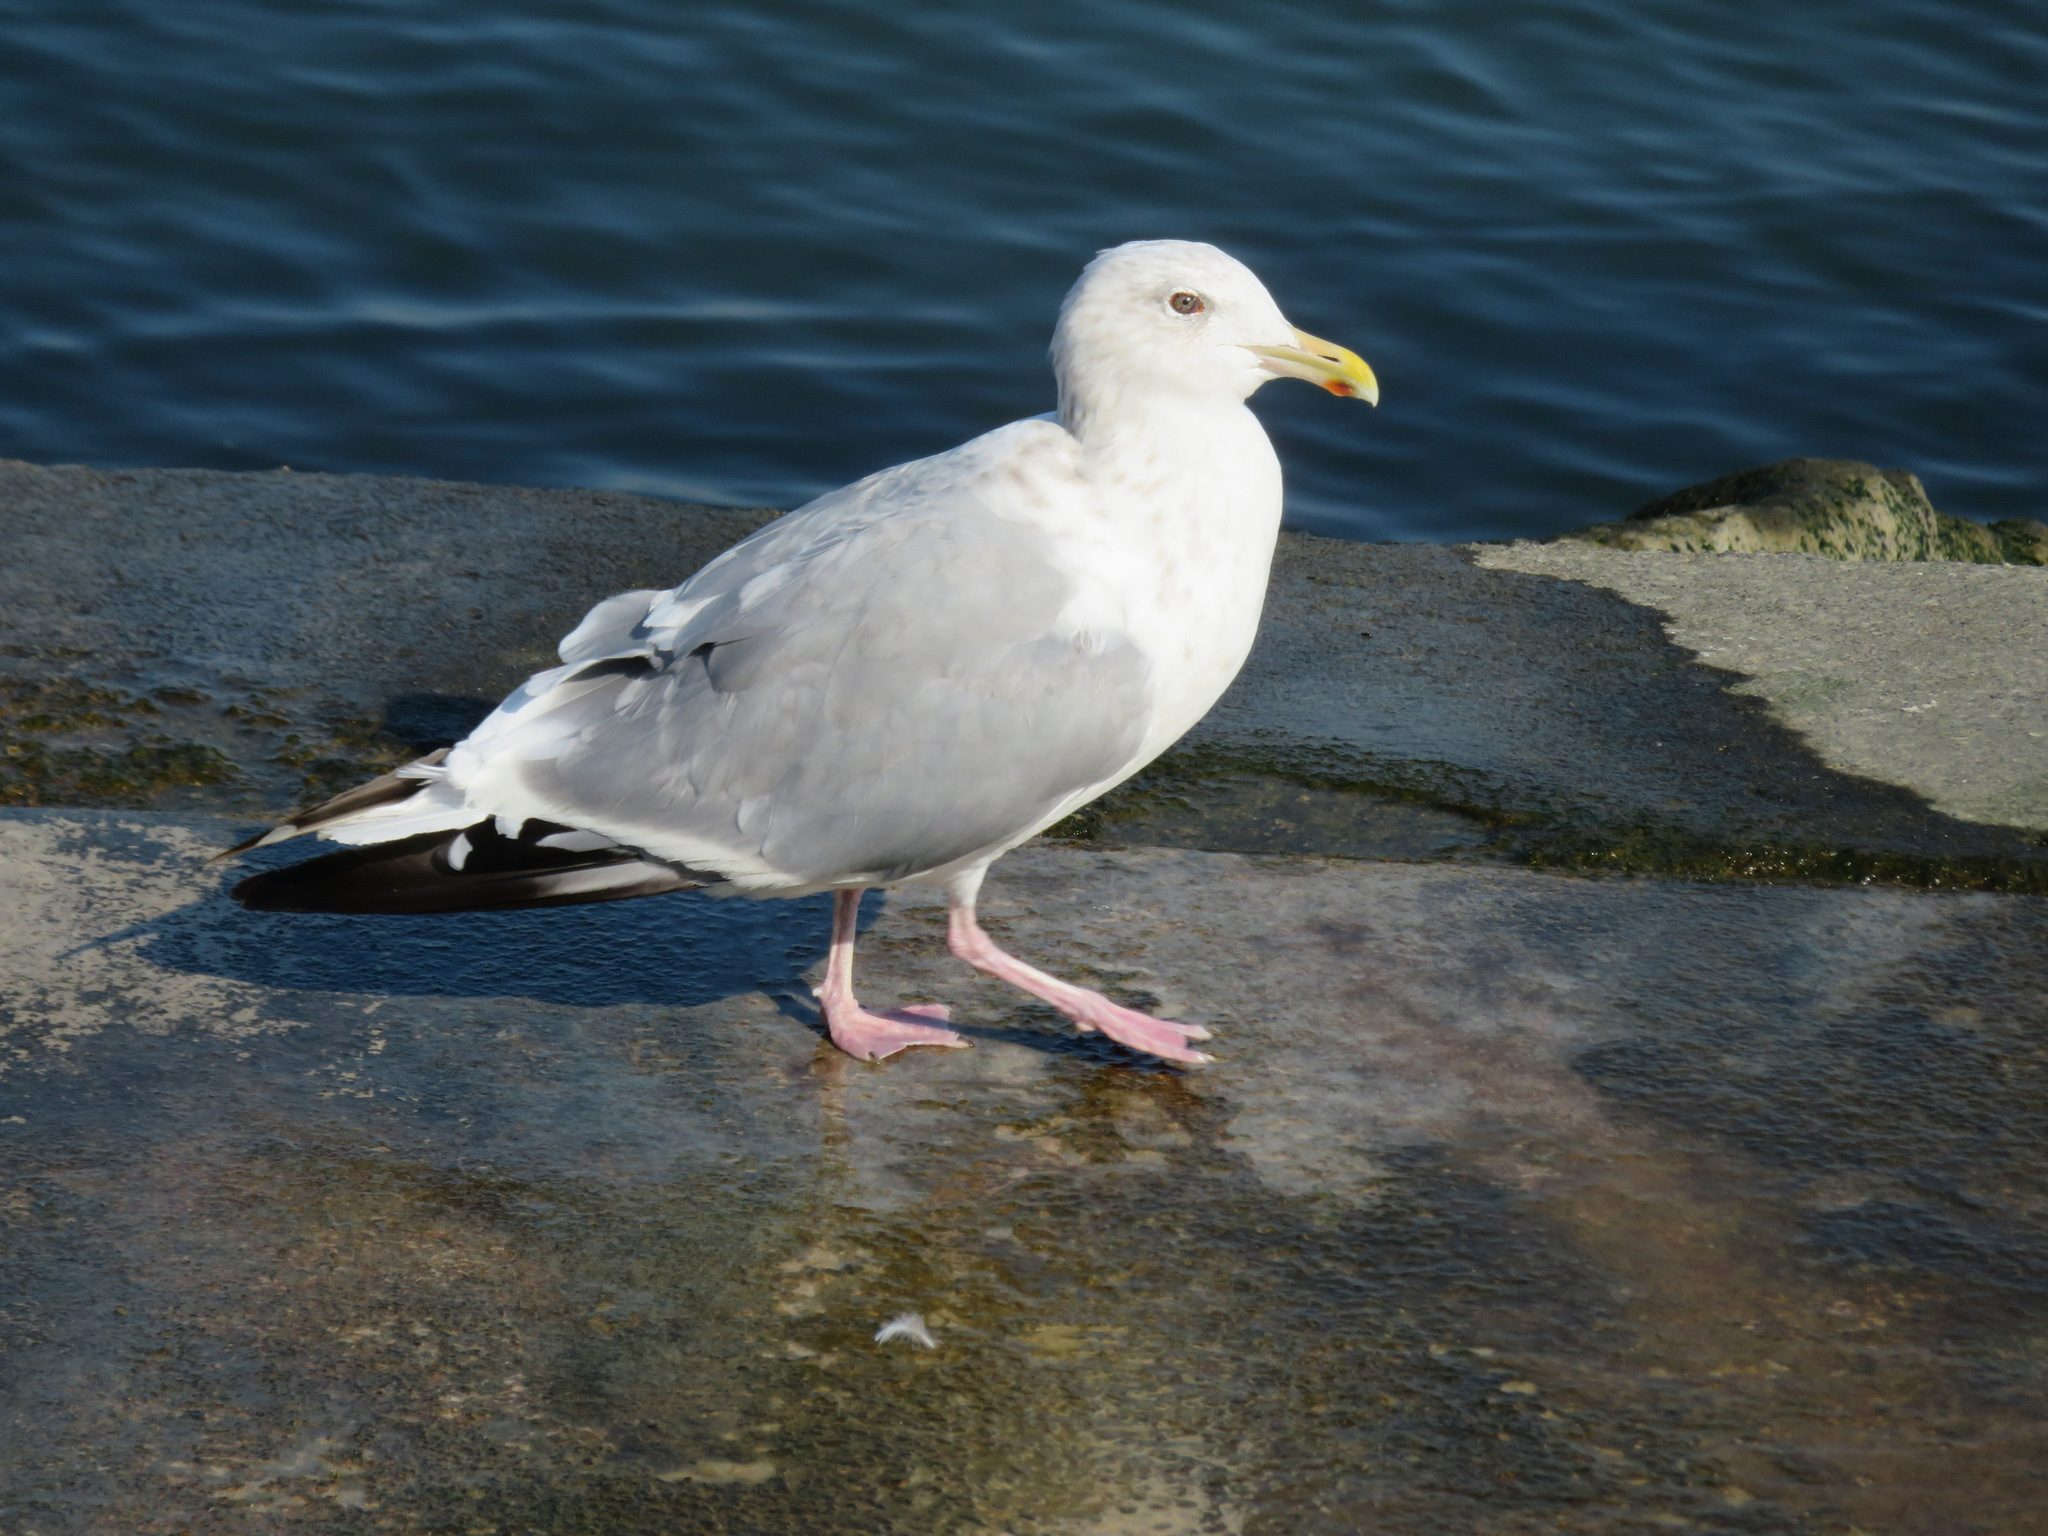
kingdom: Animalia
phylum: Chordata
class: Aves
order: Charadriiformes
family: Laridae
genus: Larus
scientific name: Larus vegae
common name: Vega gull
